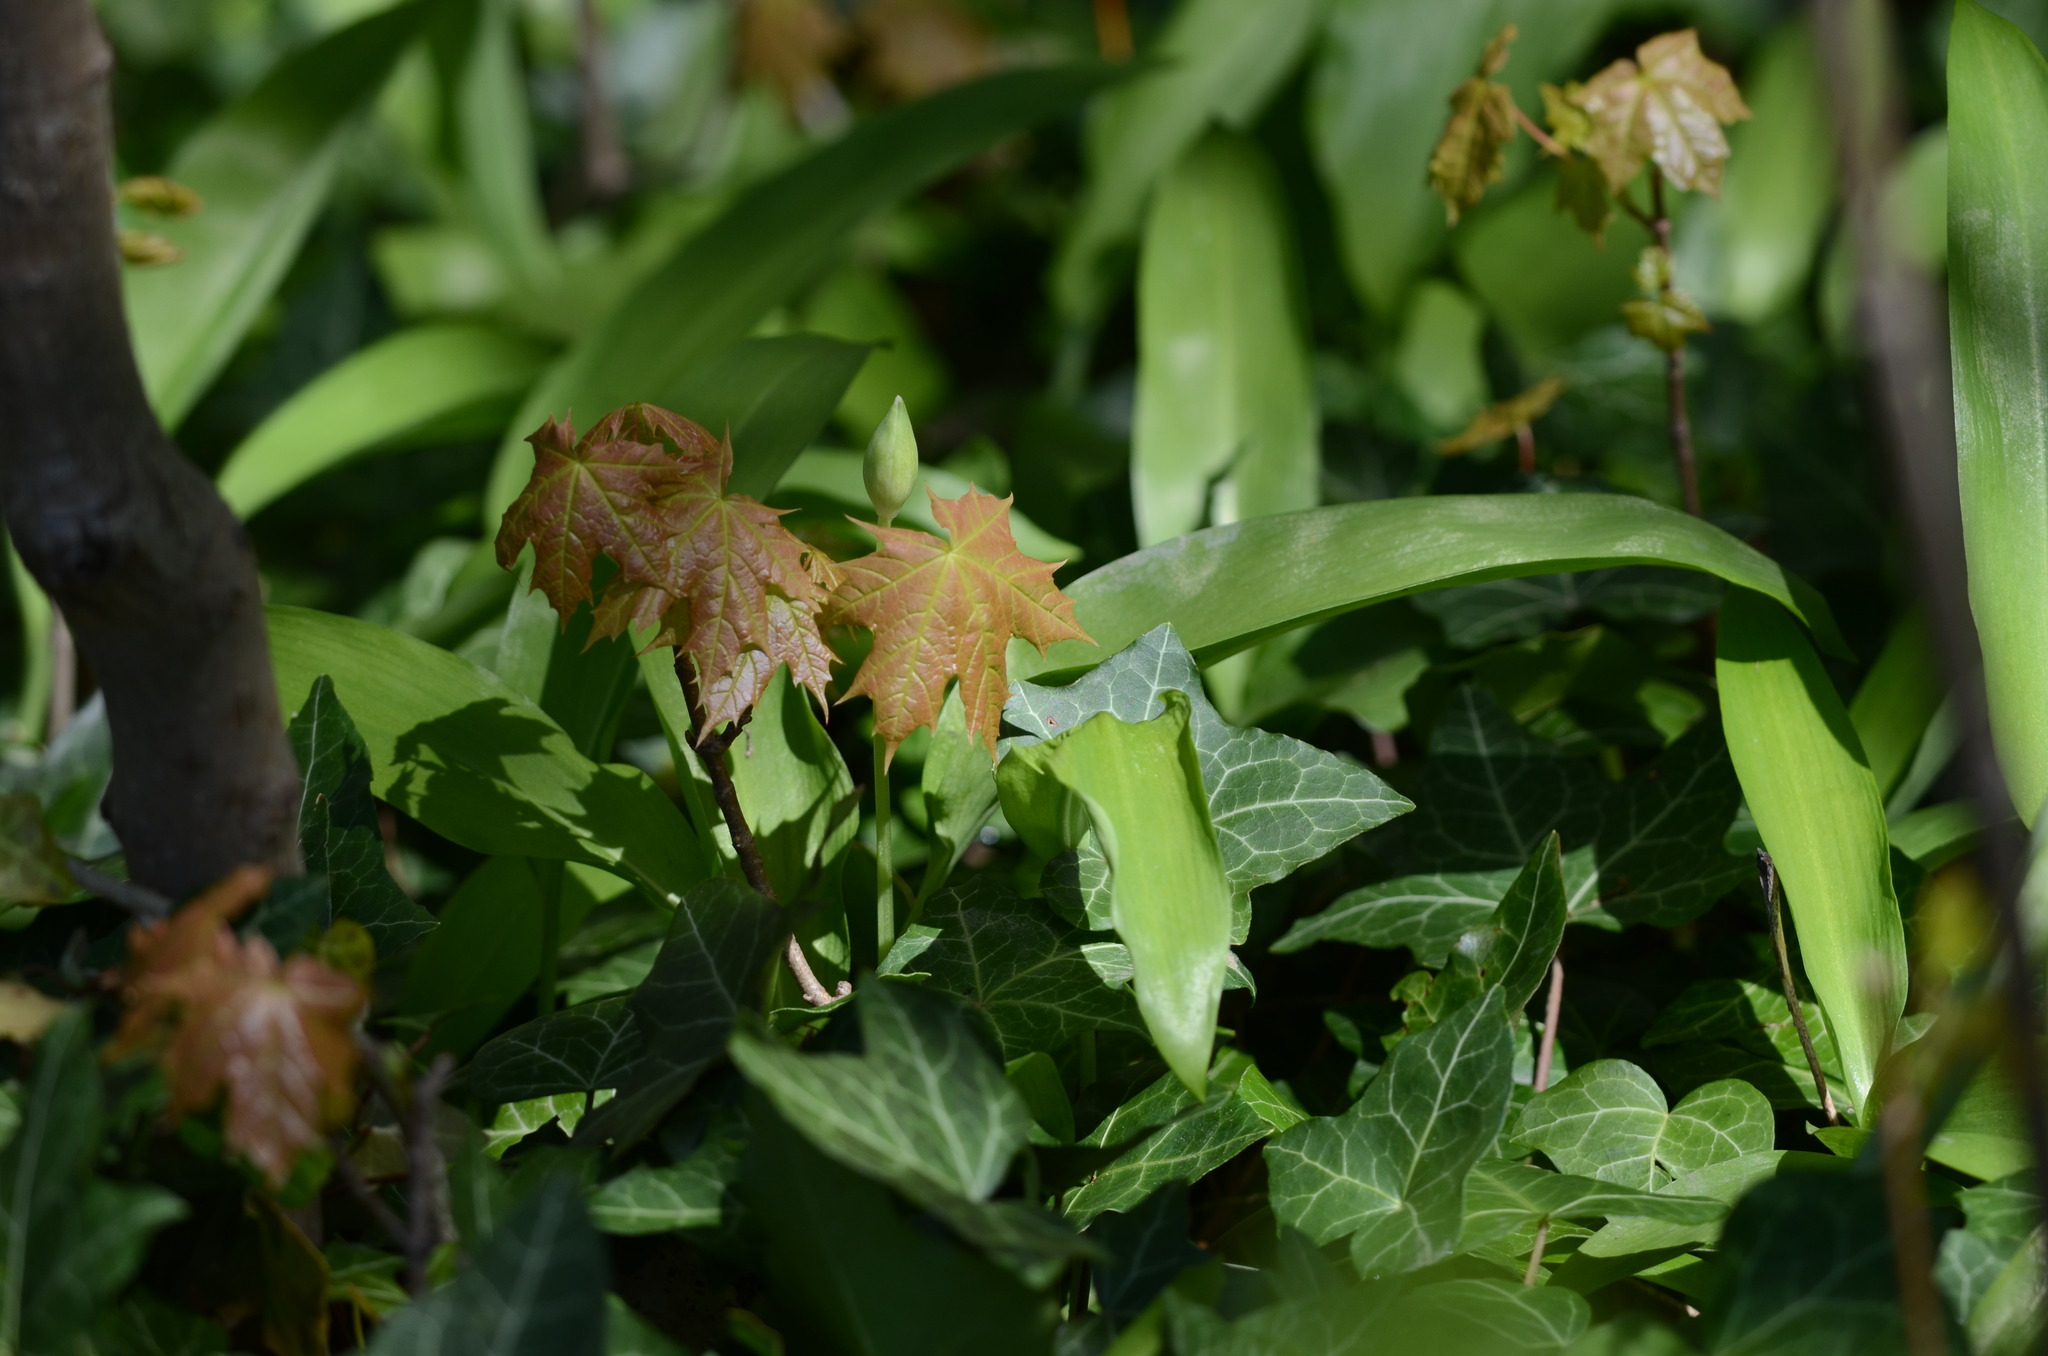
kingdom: Plantae
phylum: Tracheophyta
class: Magnoliopsida
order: Sapindales
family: Sapindaceae
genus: Acer
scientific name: Acer platanoides
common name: Norway maple
